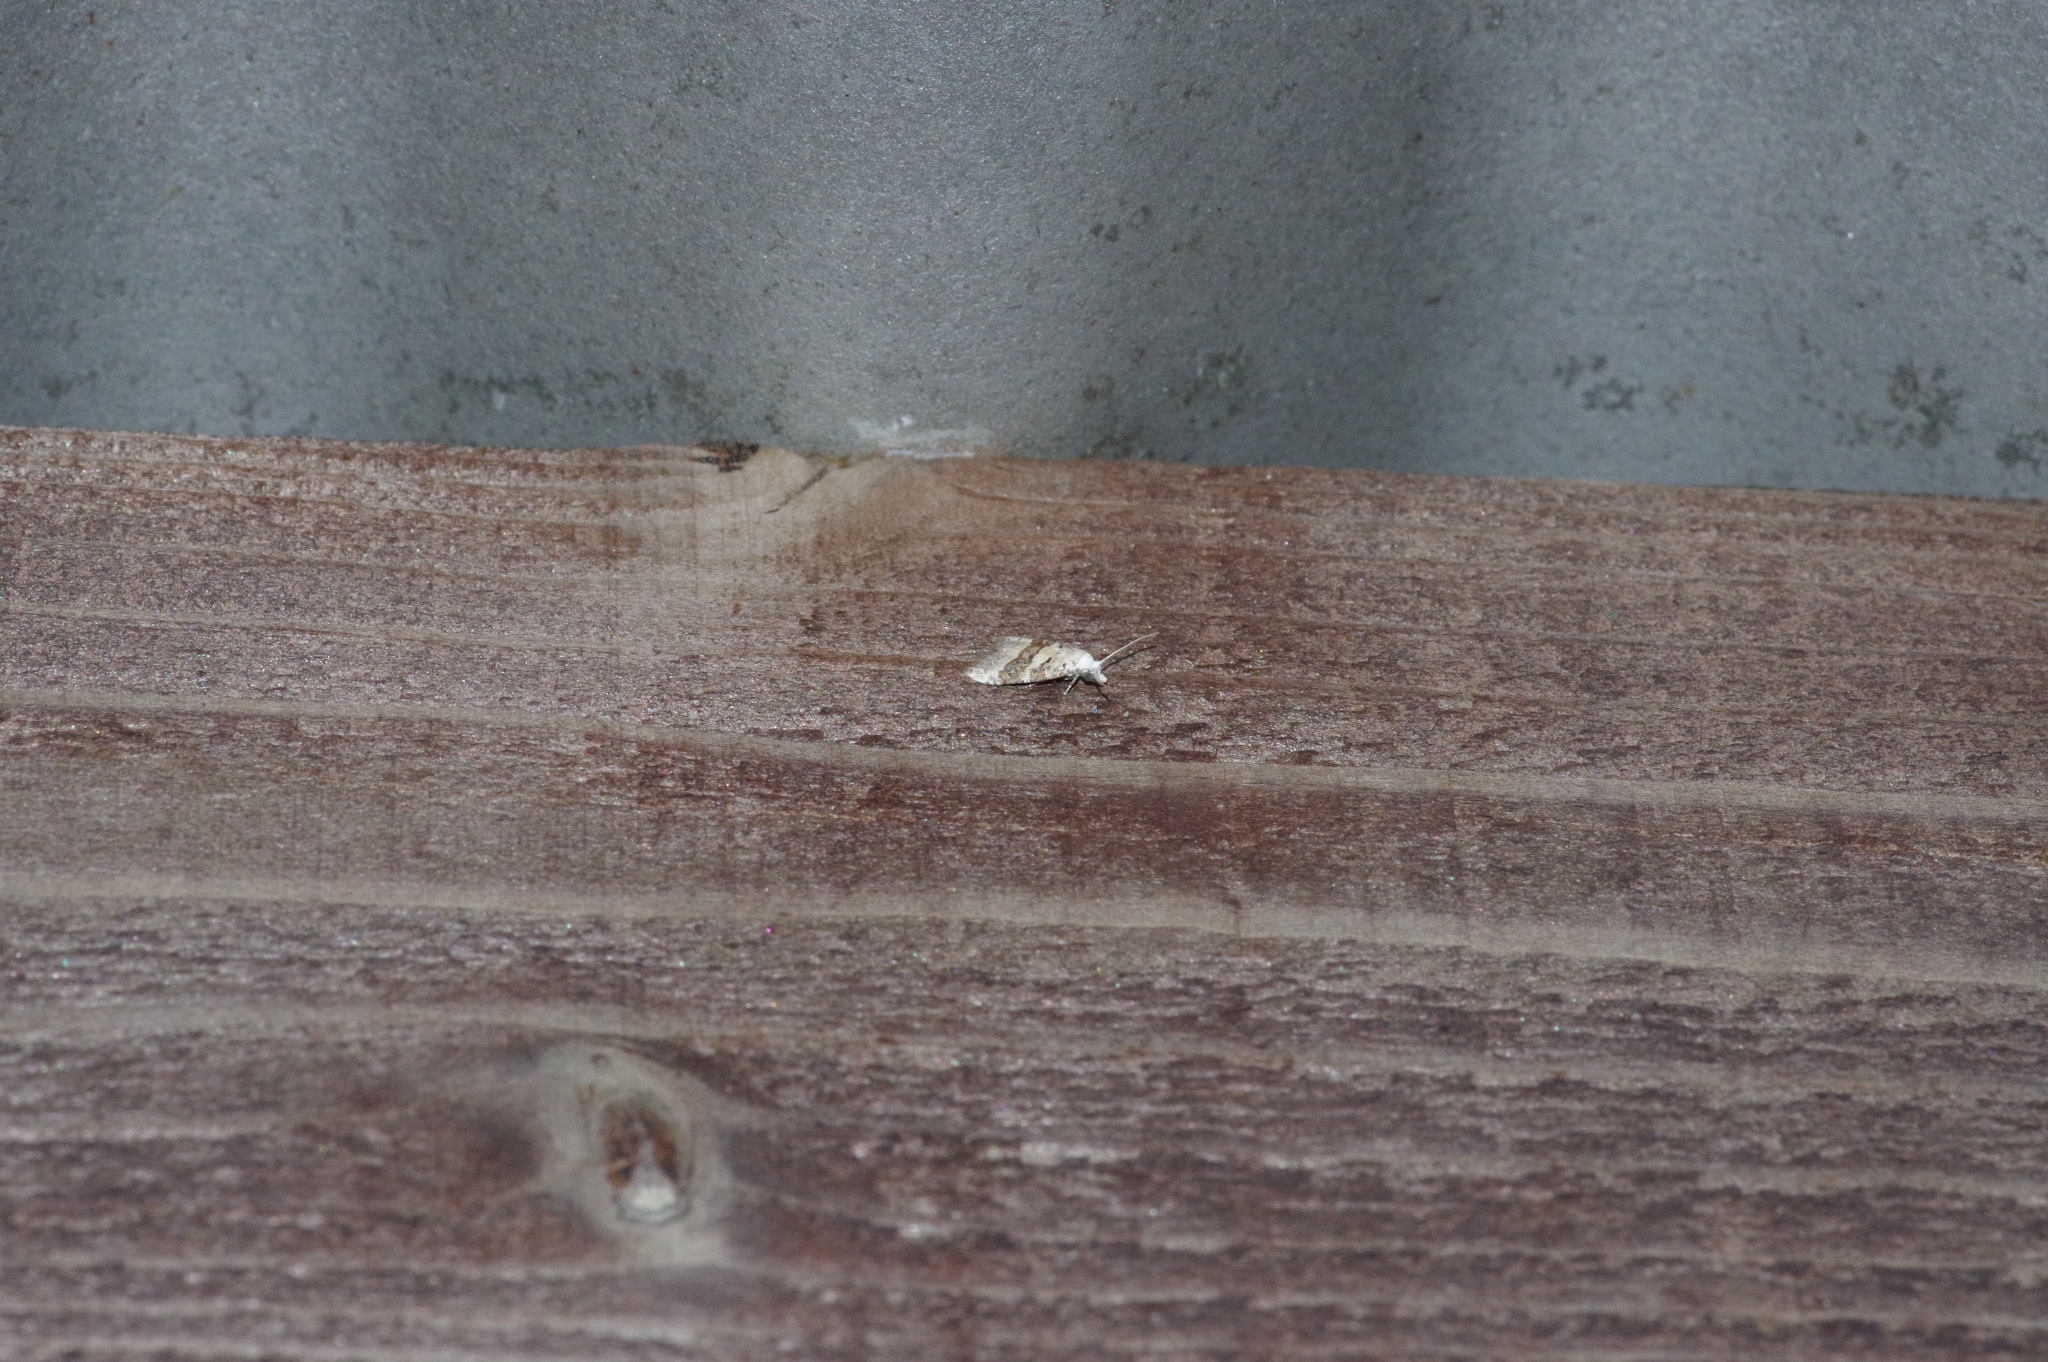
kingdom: Animalia
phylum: Arthropoda
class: Insecta
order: Lepidoptera
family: Nolidae
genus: Nola
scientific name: Nola taeniata
